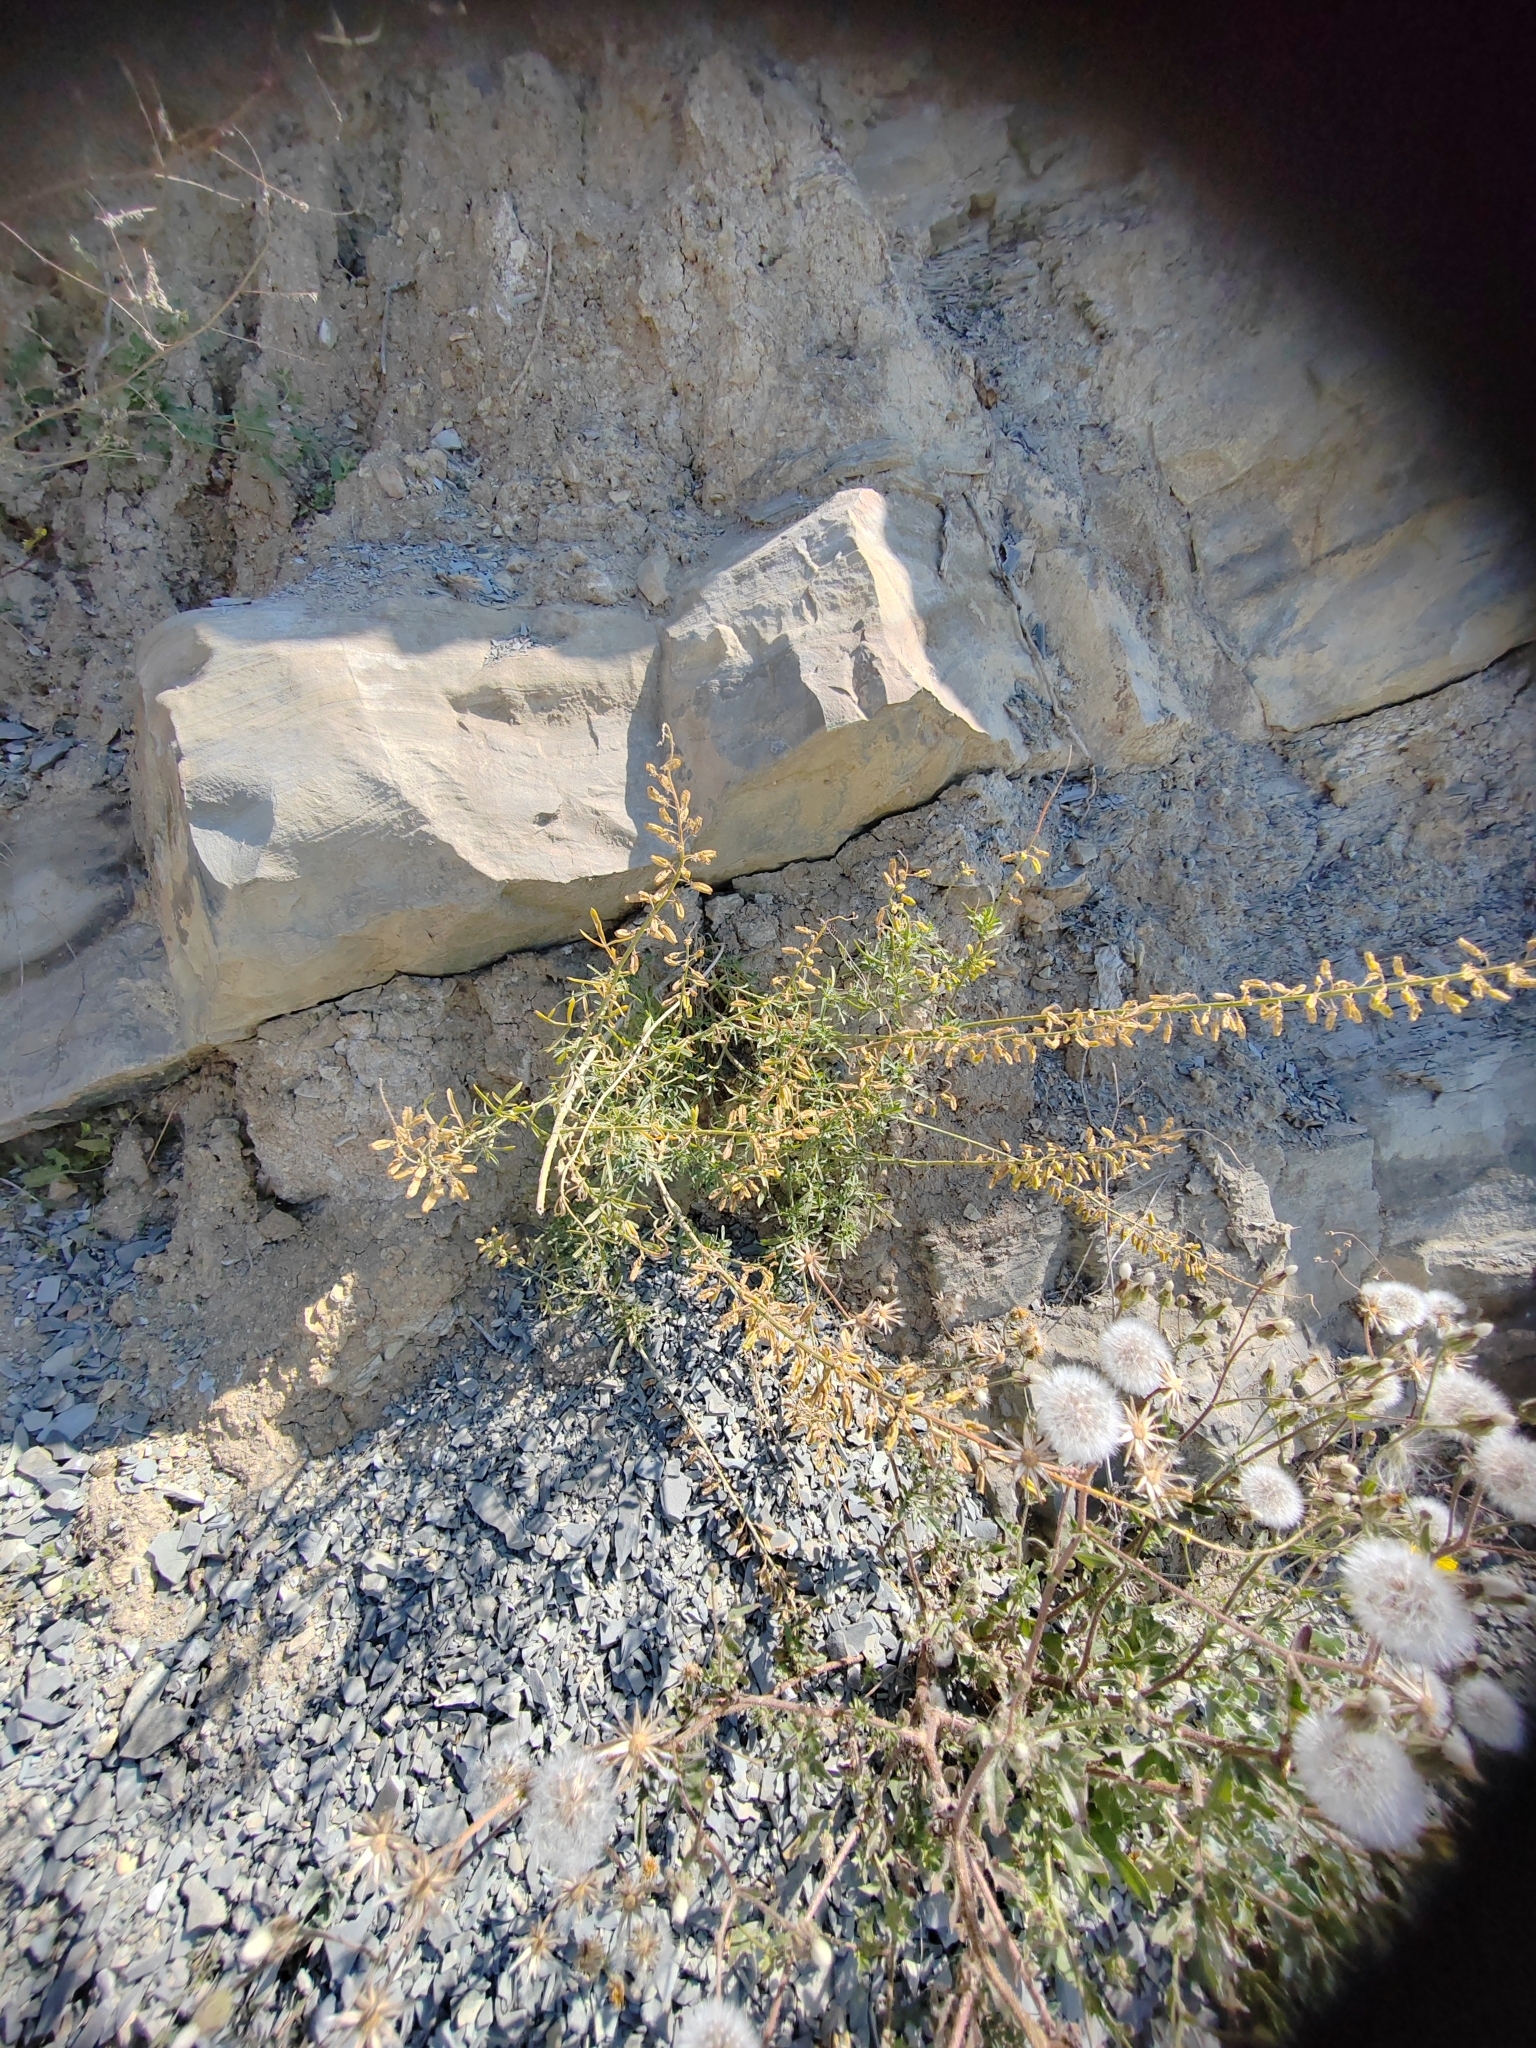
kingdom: Plantae
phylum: Tracheophyta
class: Magnoliopsida
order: Brassicales
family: Resedaceae
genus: Reseda
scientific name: Reseda lutea
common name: Wild mignonette
